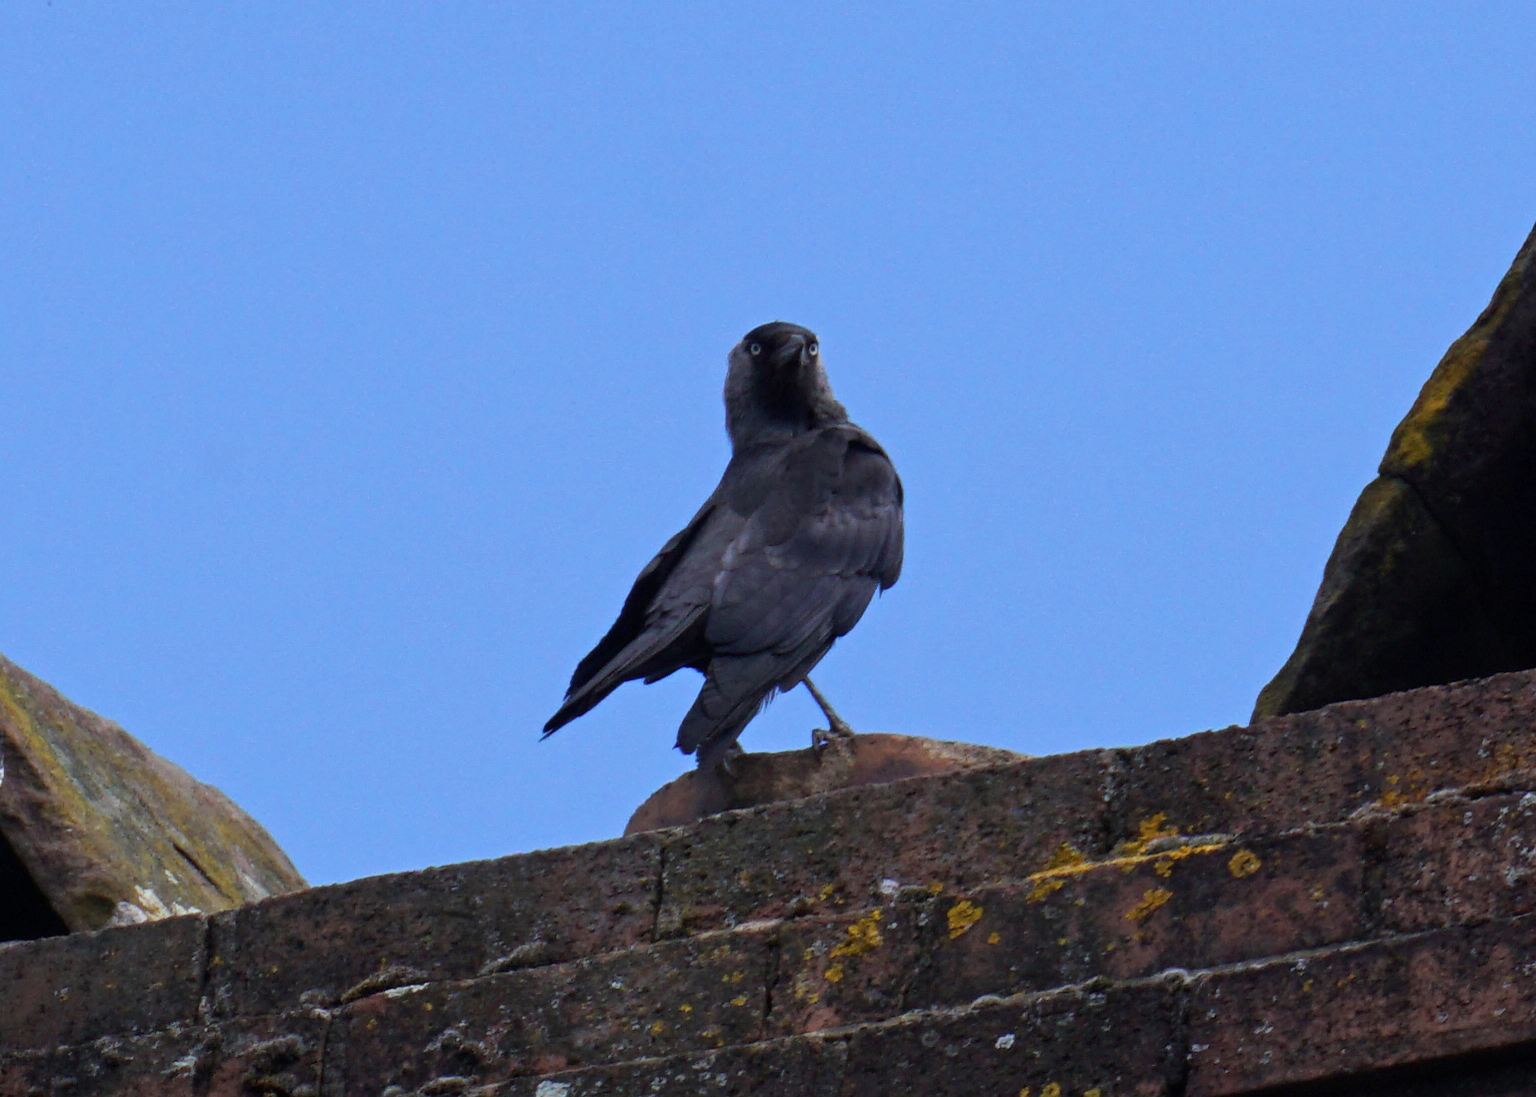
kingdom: Animalia
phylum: Chordata
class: Aves
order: Passeriformes
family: Corvidae
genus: Coloeus
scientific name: Coloeus monedula
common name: Western jackdaw
